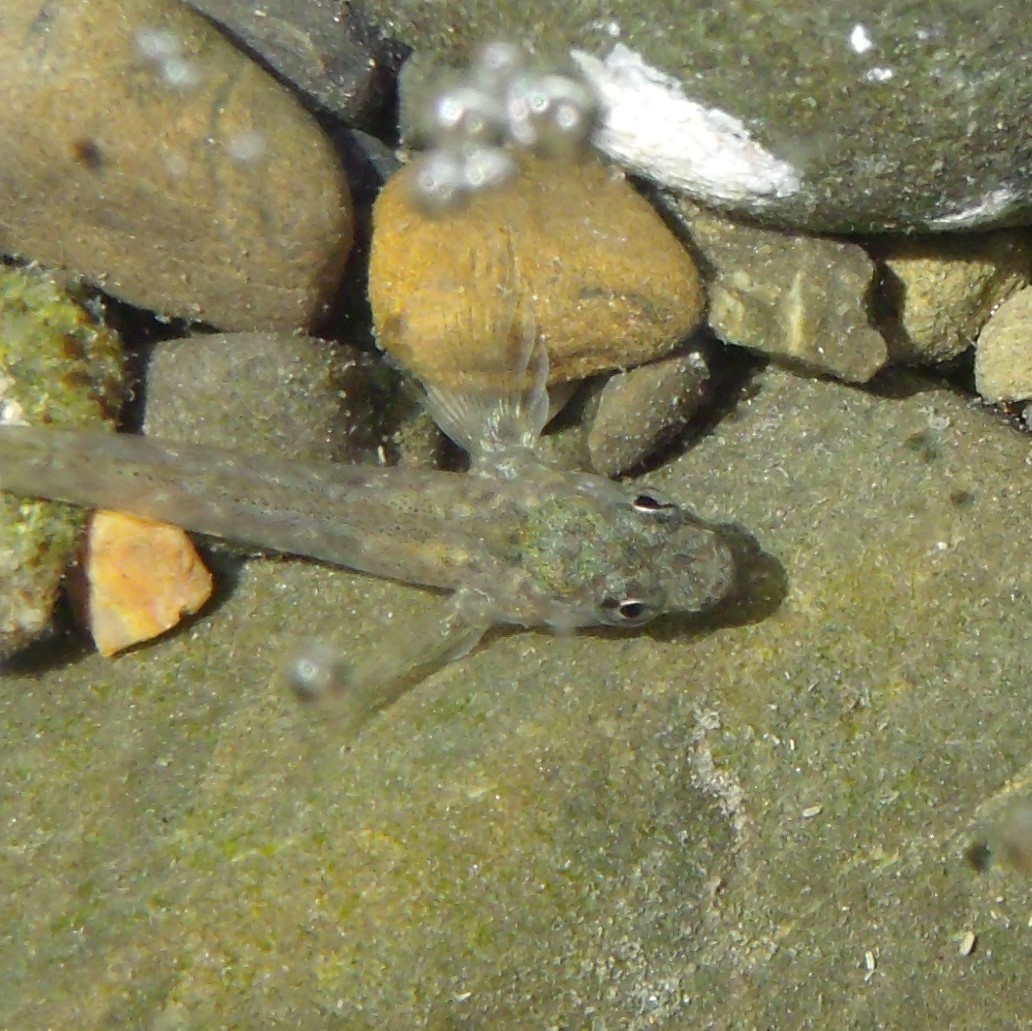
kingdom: Animalia
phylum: Chordata
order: Perciformes
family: Tripterygiidae
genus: Bellapiscis
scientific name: Bellapiscis medius
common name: Twister
